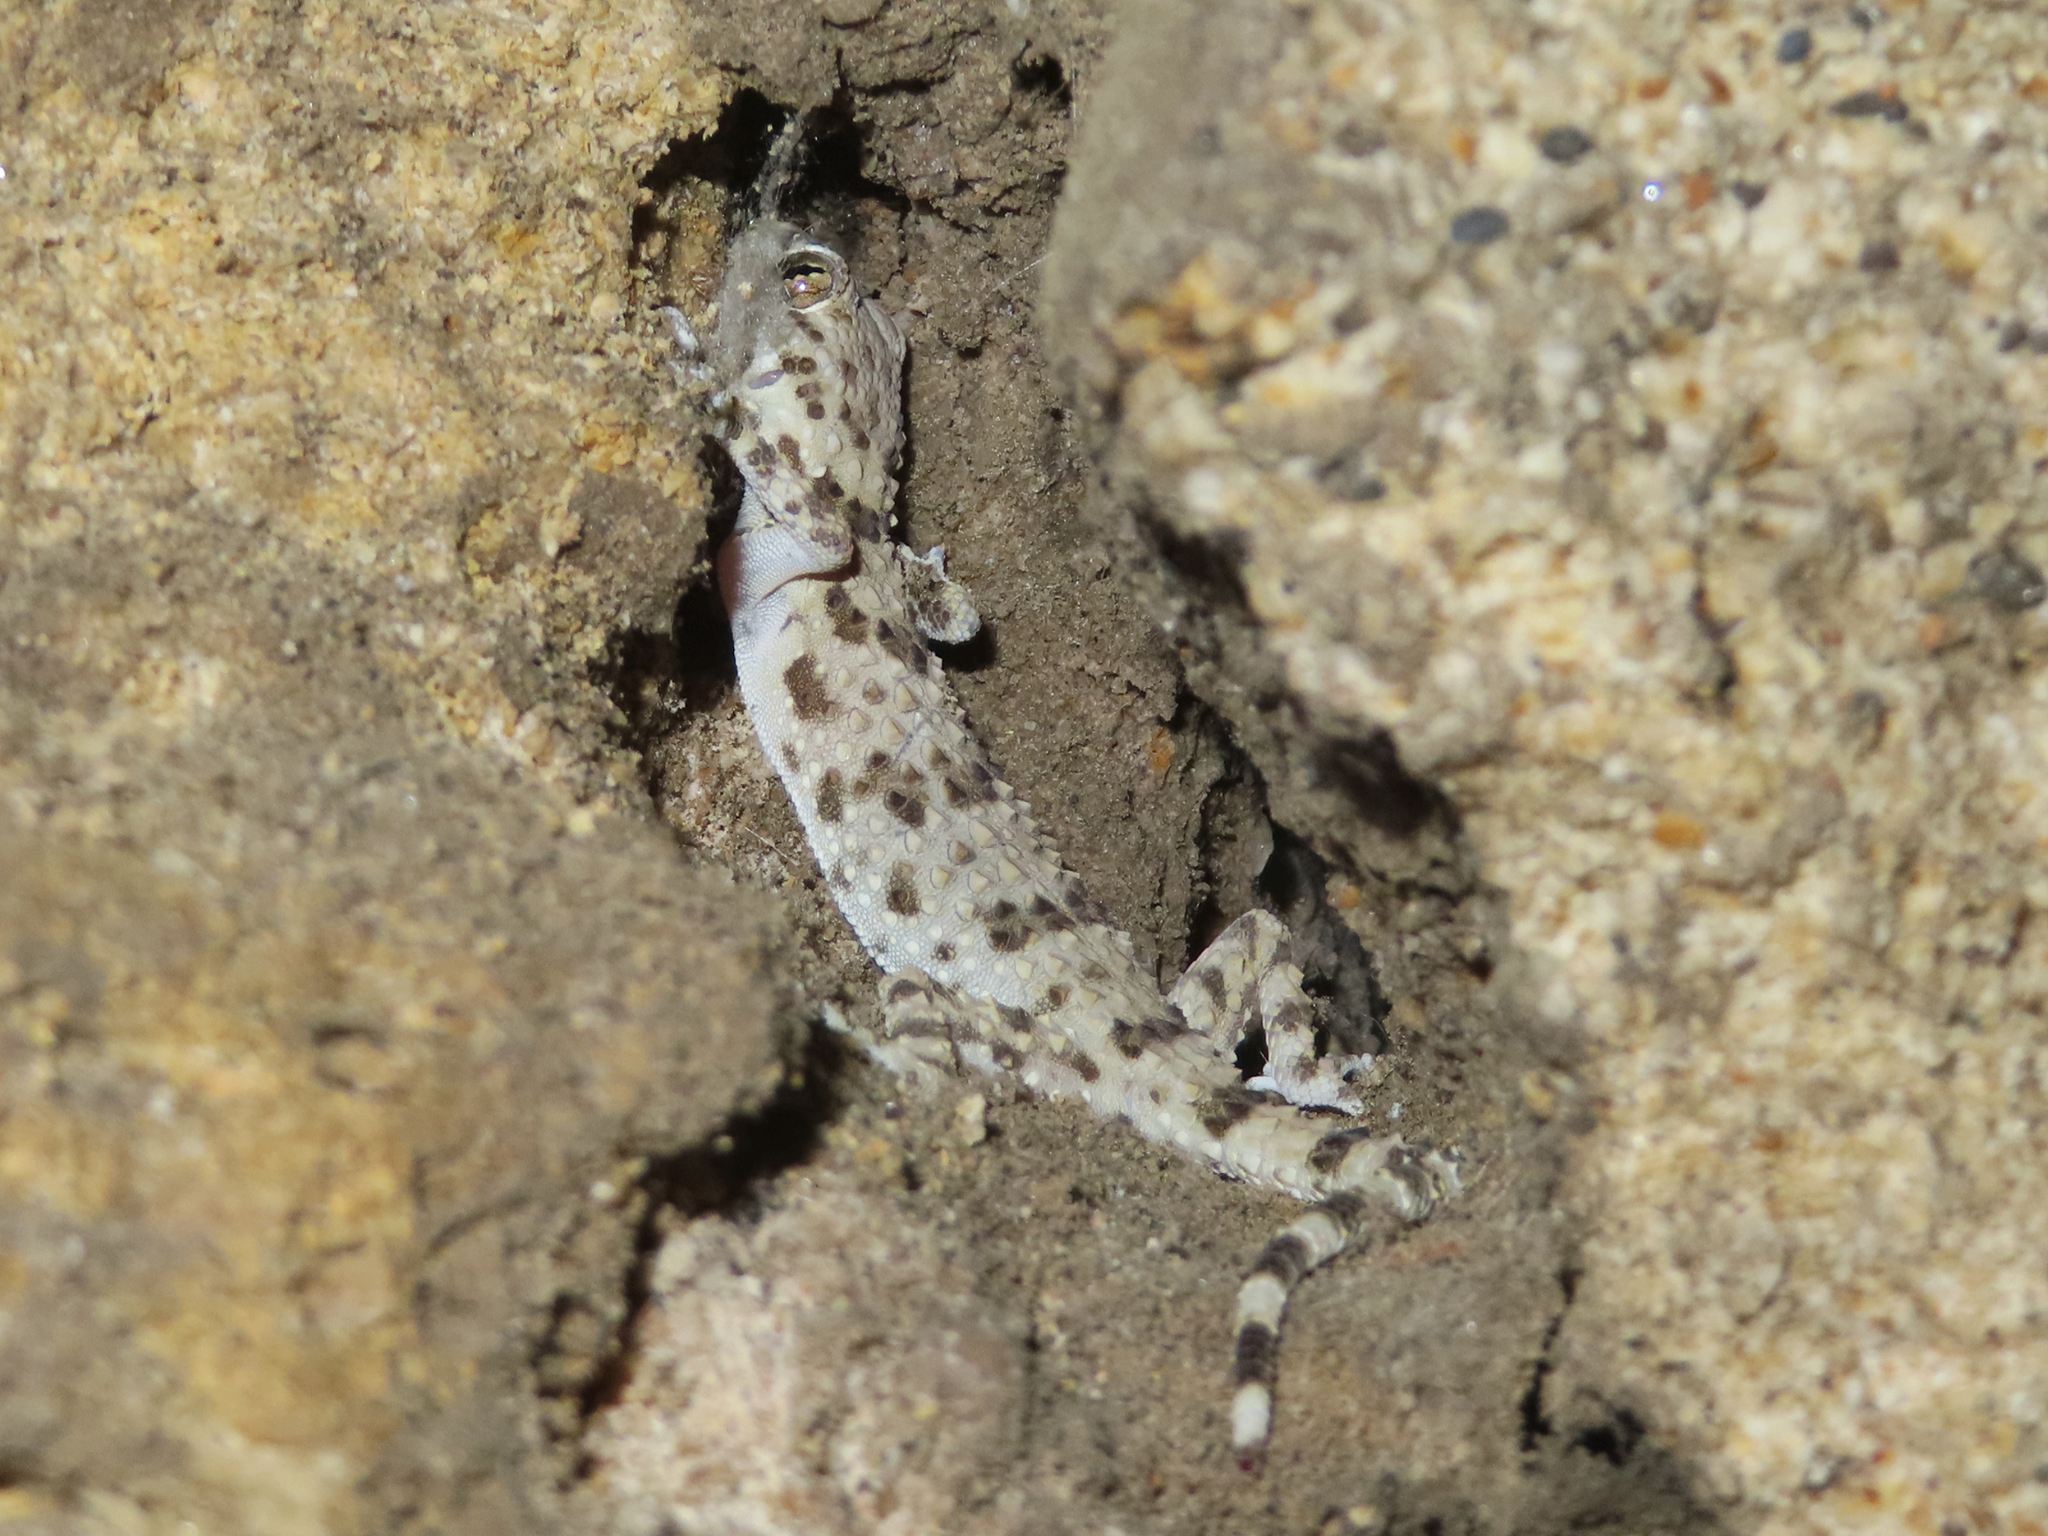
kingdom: Animalia
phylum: Chordata
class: Squamata
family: Gekkonidae
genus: Tenuidactylus
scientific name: Tenuidactylus caspius
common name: Caspian bent-toed gecko
